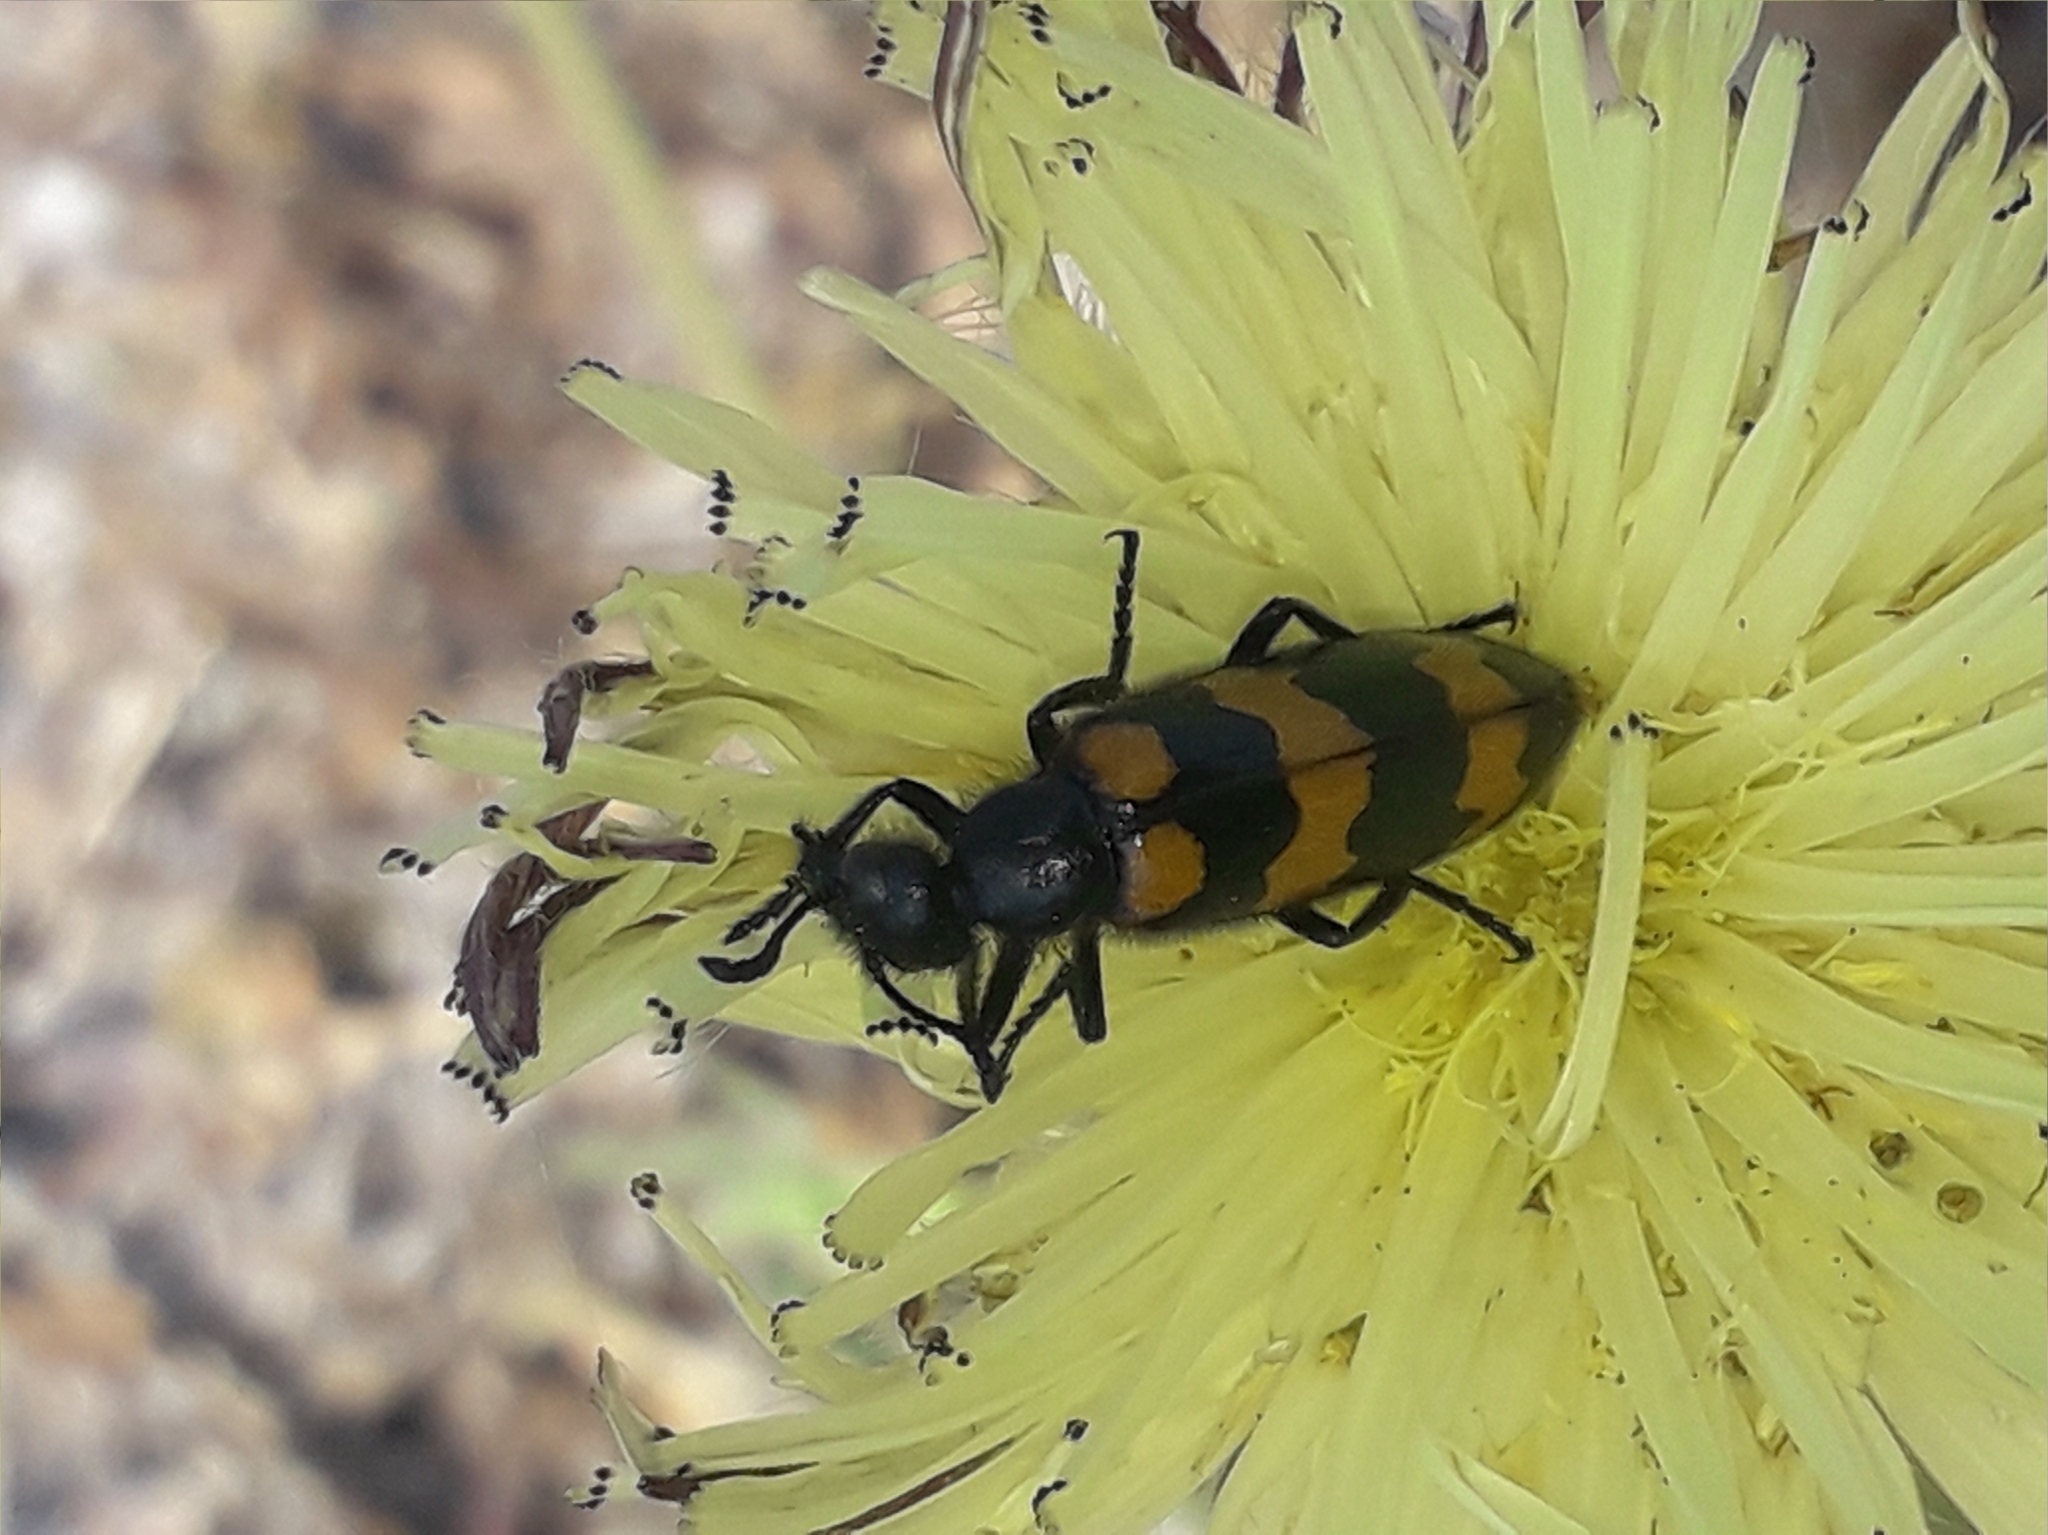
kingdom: Animalia
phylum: Arthropoda
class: Insecta
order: Coleoptera
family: Meloidae
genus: Mylabris
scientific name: Mylabris variabilis
